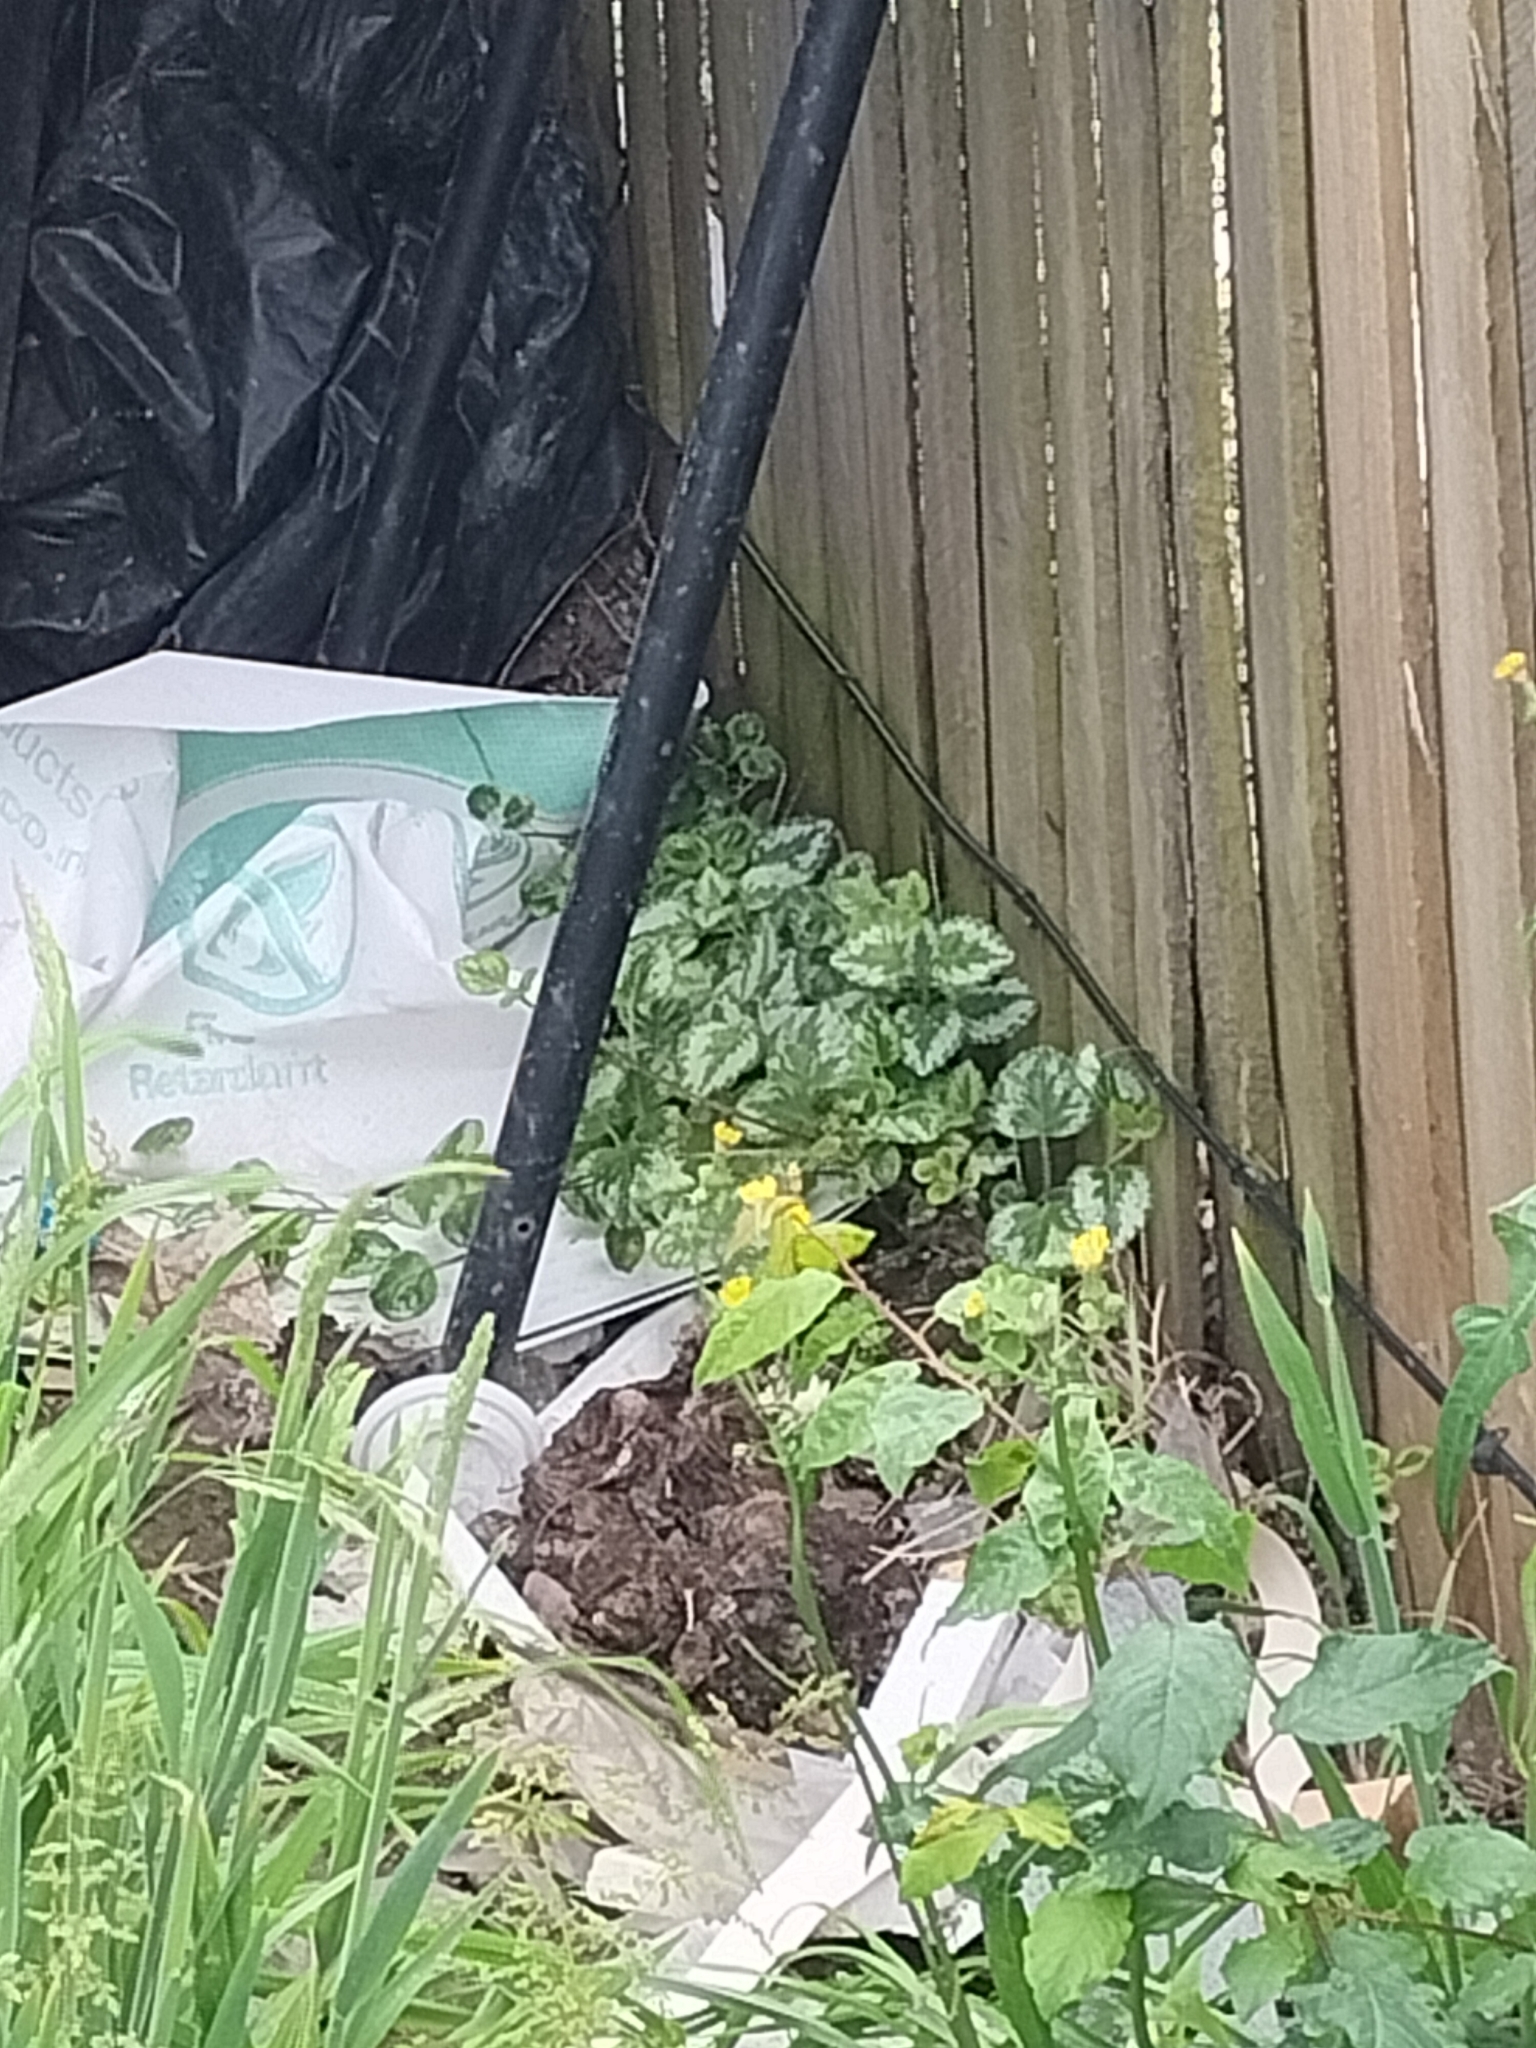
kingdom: Plantae
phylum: Tracheophyta
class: Magnoliopsida
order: Lamiales
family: Lamiaceae
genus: Lamium
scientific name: Lamium galeobdolon
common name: Yellow archangel
